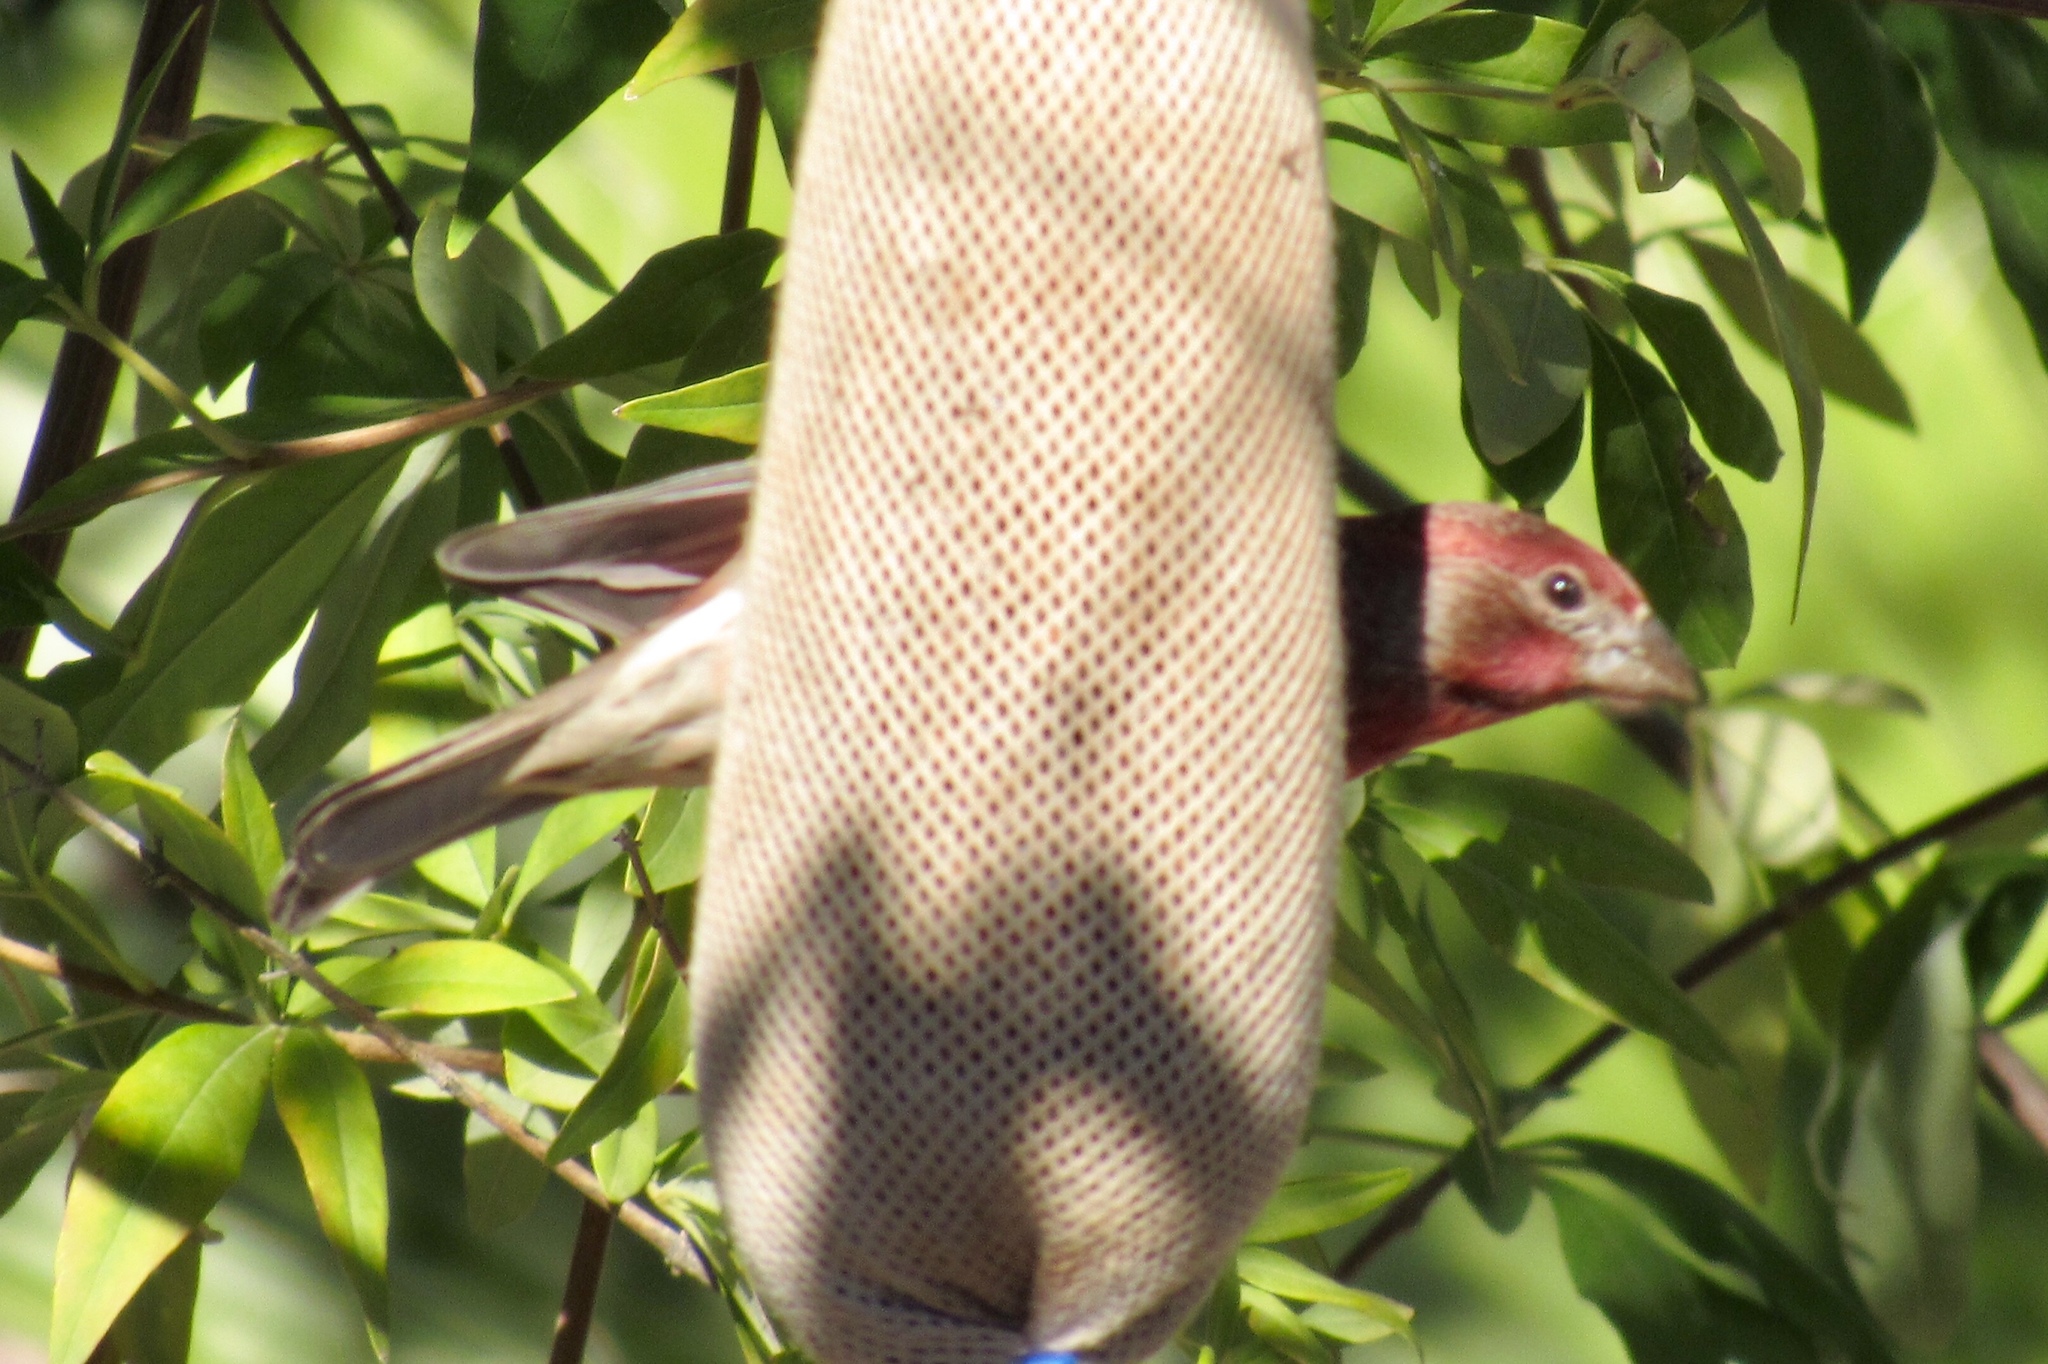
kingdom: Animalia
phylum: Chordata
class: Aves
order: Passeriformes
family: Fringillidae
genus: Haemorhous
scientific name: Haemorhous mexicanus
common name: House finch
